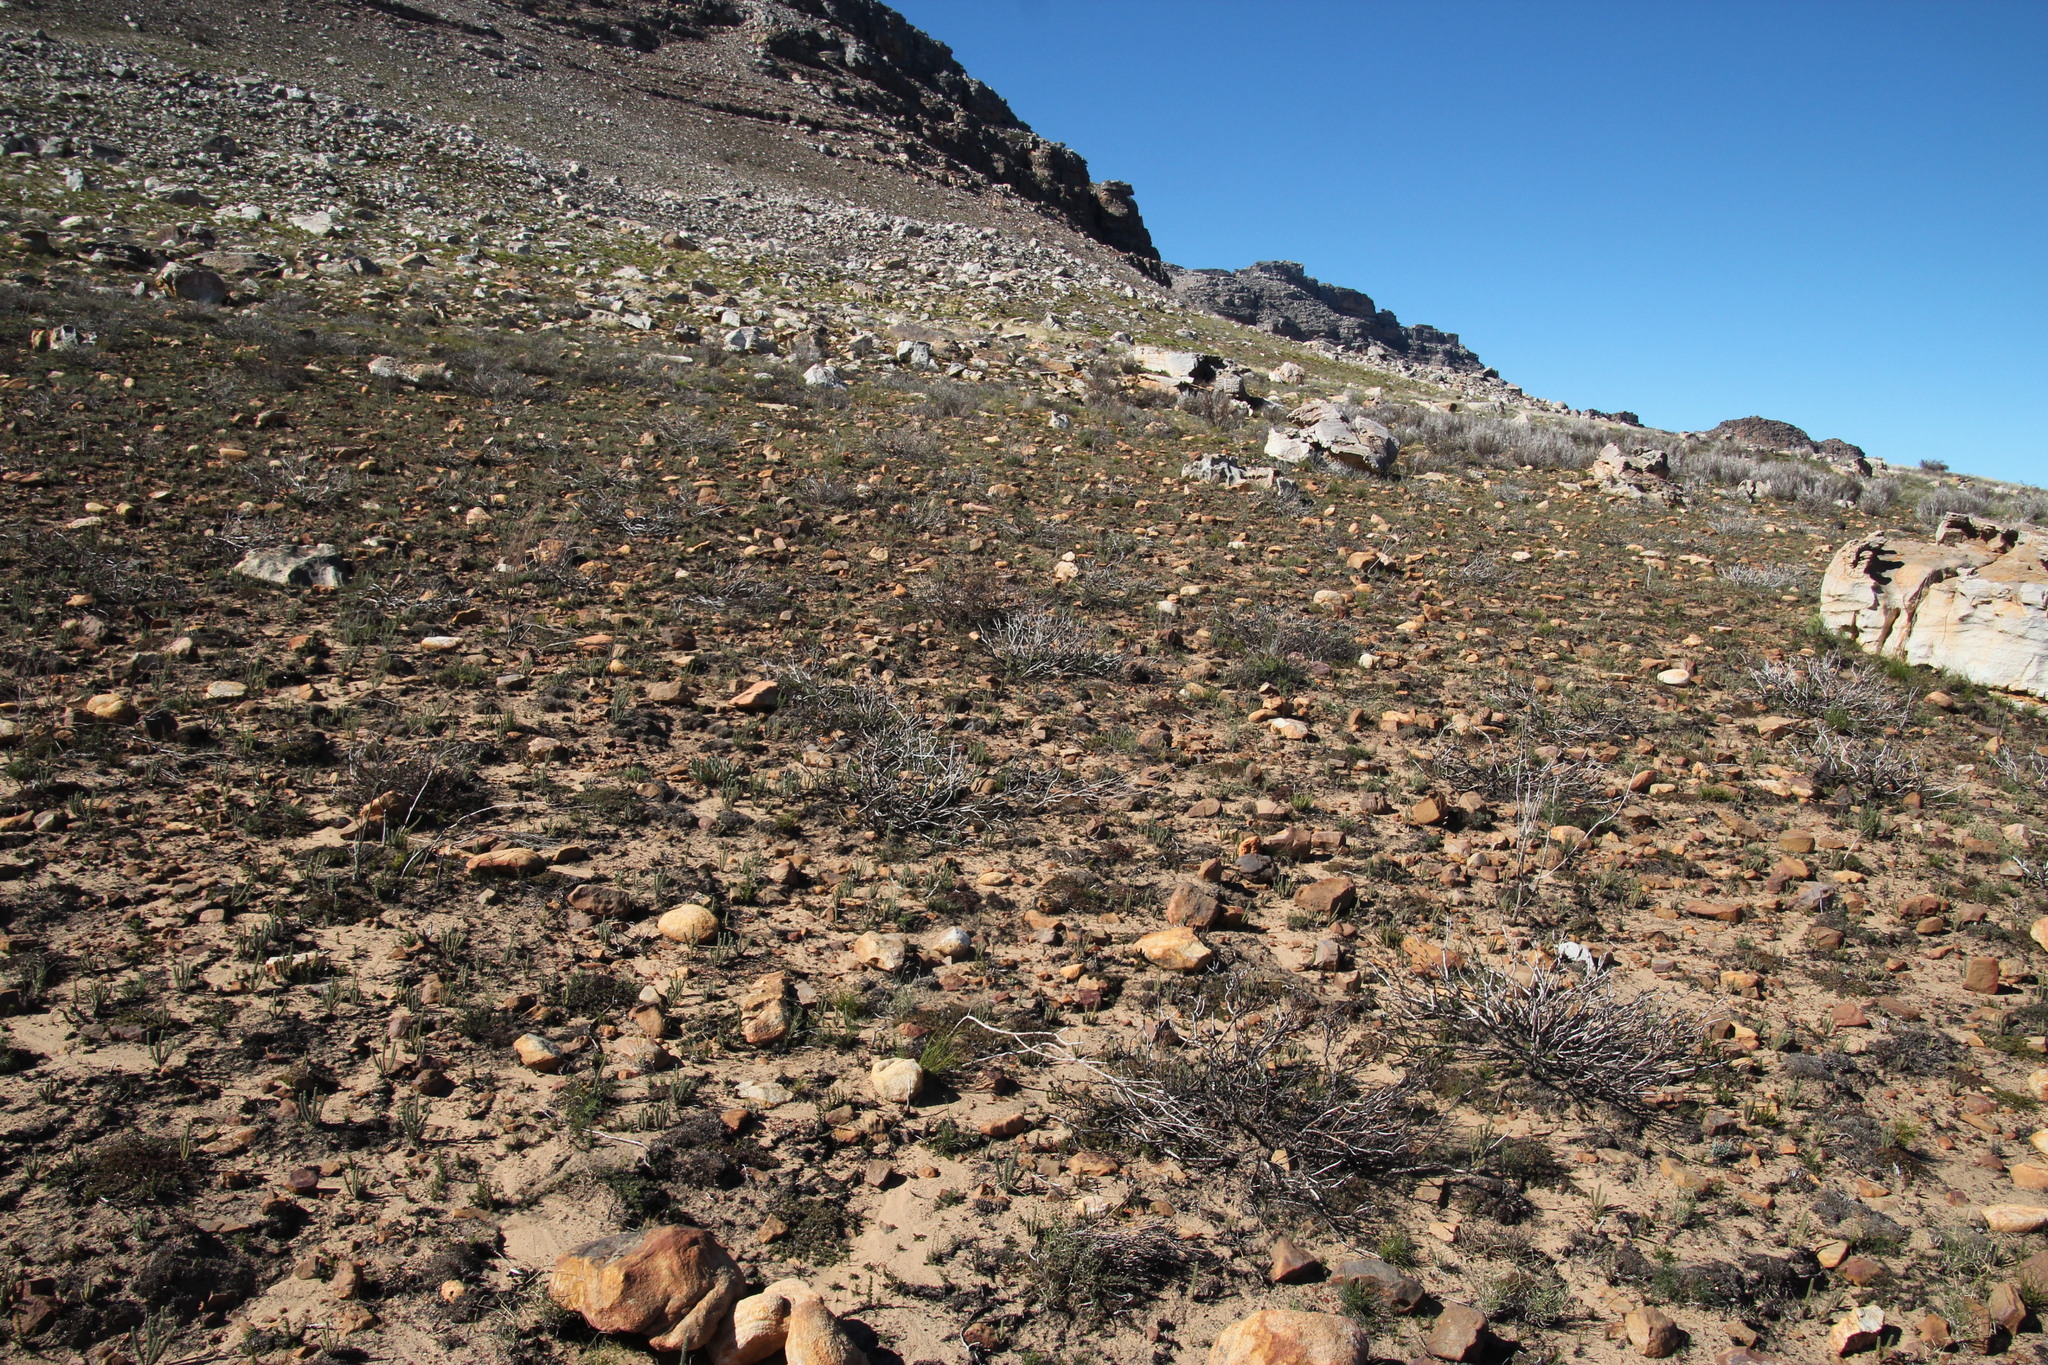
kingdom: Plantae
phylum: Tracheophyta
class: Magnoliopsida
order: Proteales
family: Proteaceae
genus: Leucadendron
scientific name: Leucadendron glaberrimum
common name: Common oily conebush
